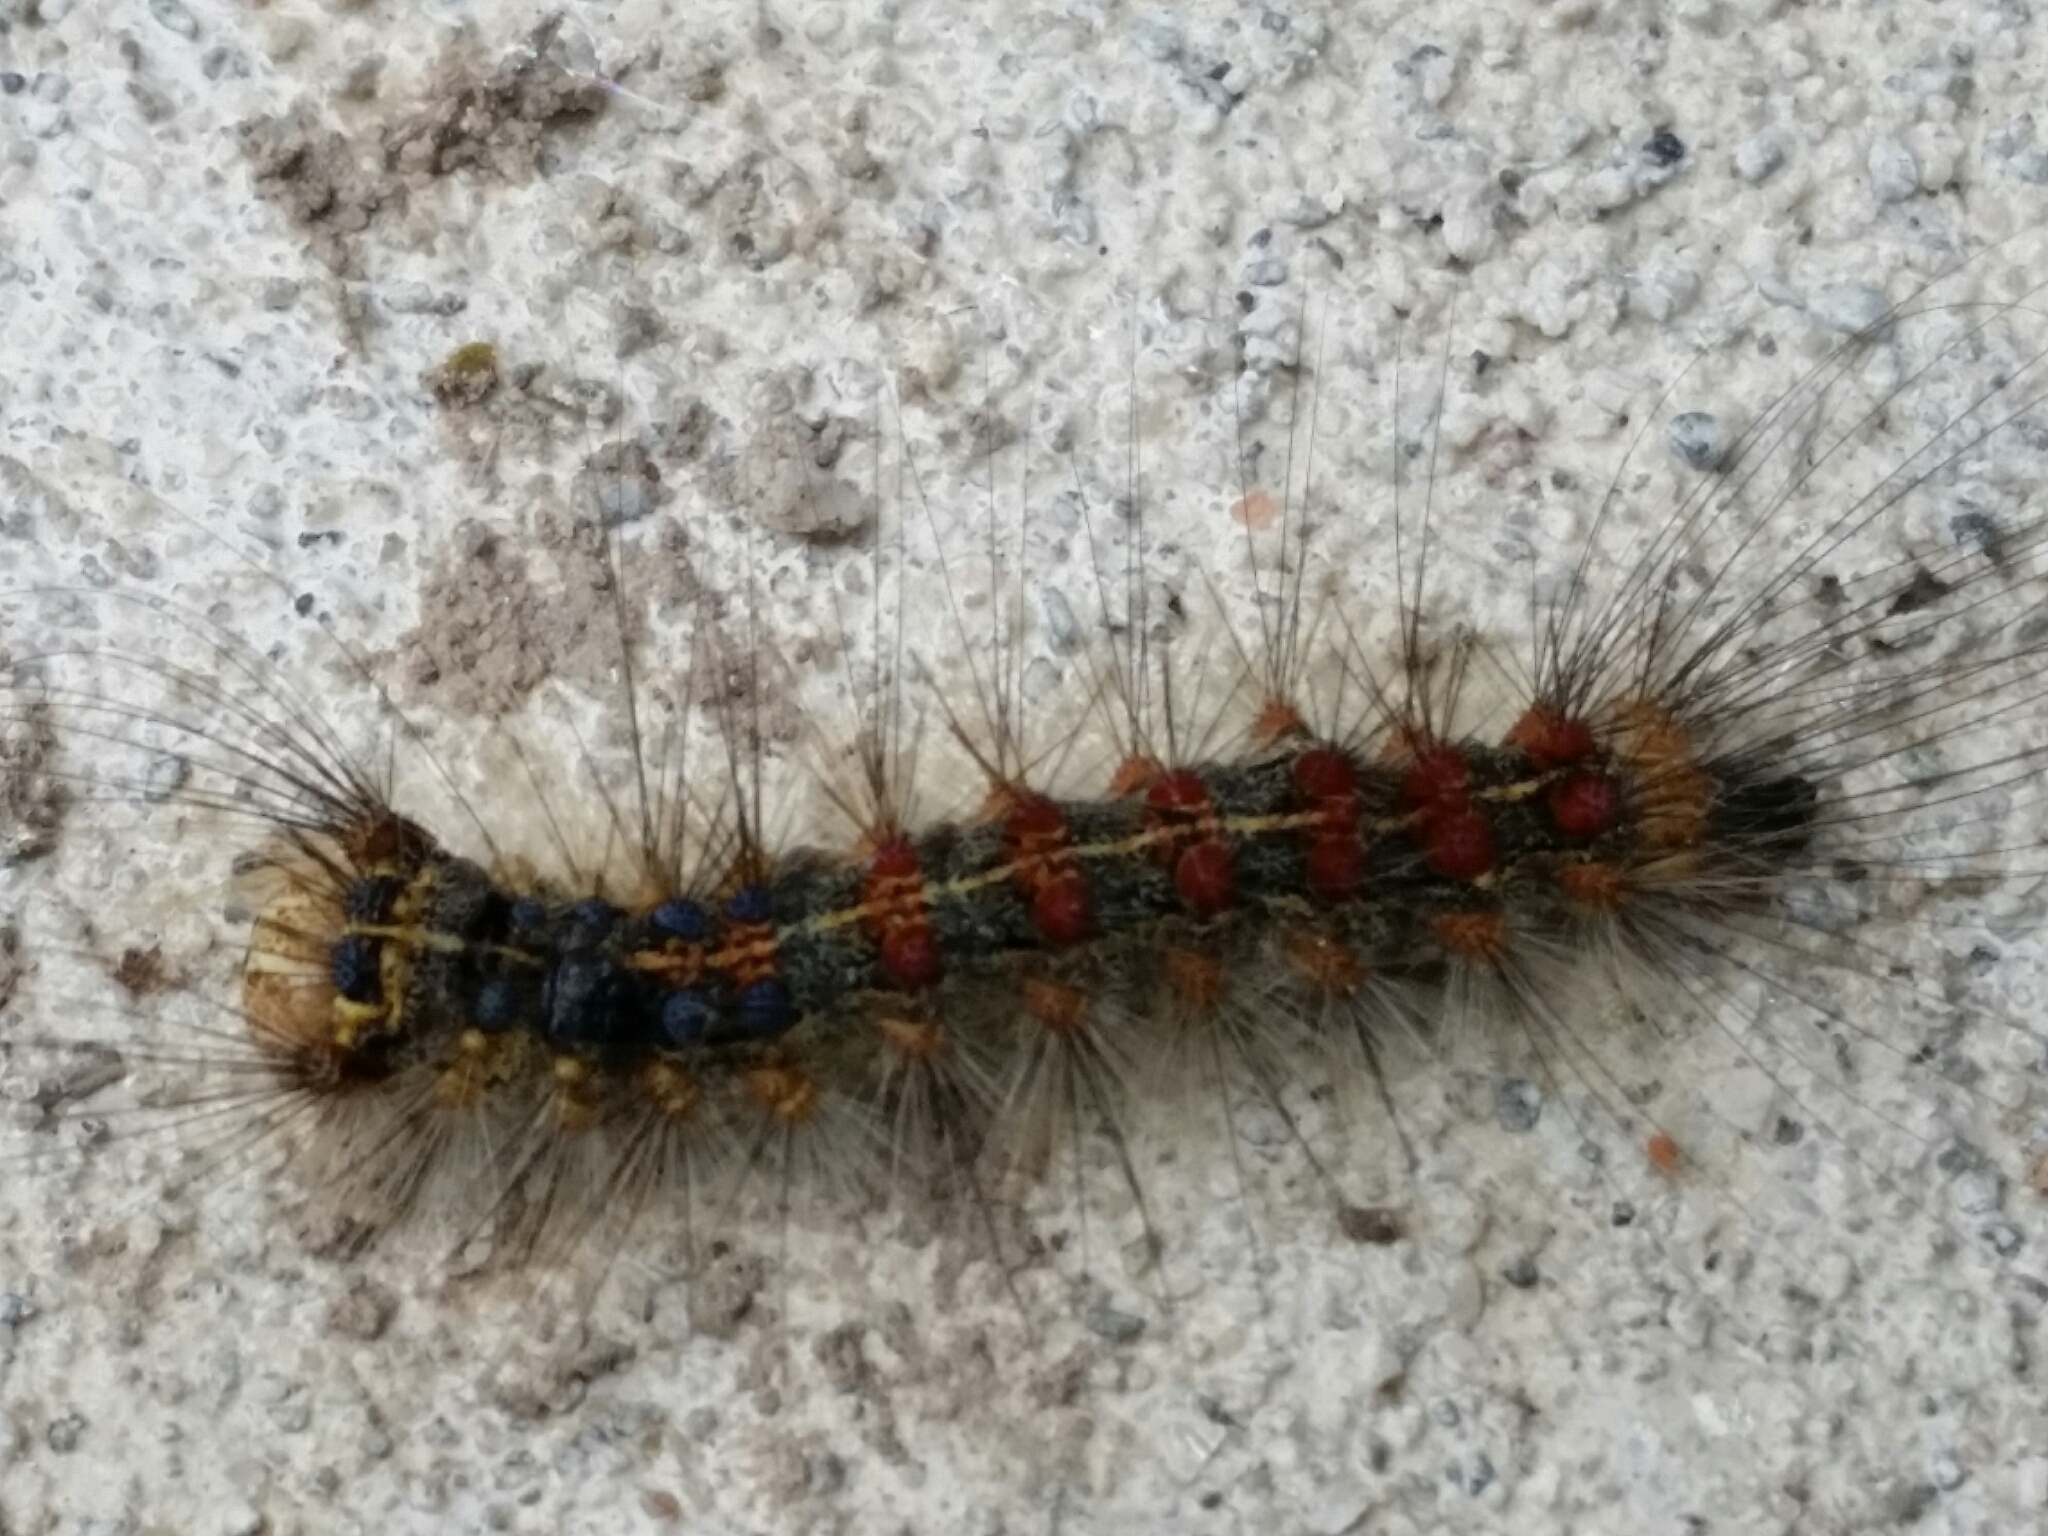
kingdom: Animalia
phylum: Arthropoda
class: Insecta
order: Lepidoptera
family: Erebidae
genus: Lymantria
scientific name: Lymantria dispar
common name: Gypsy moth
